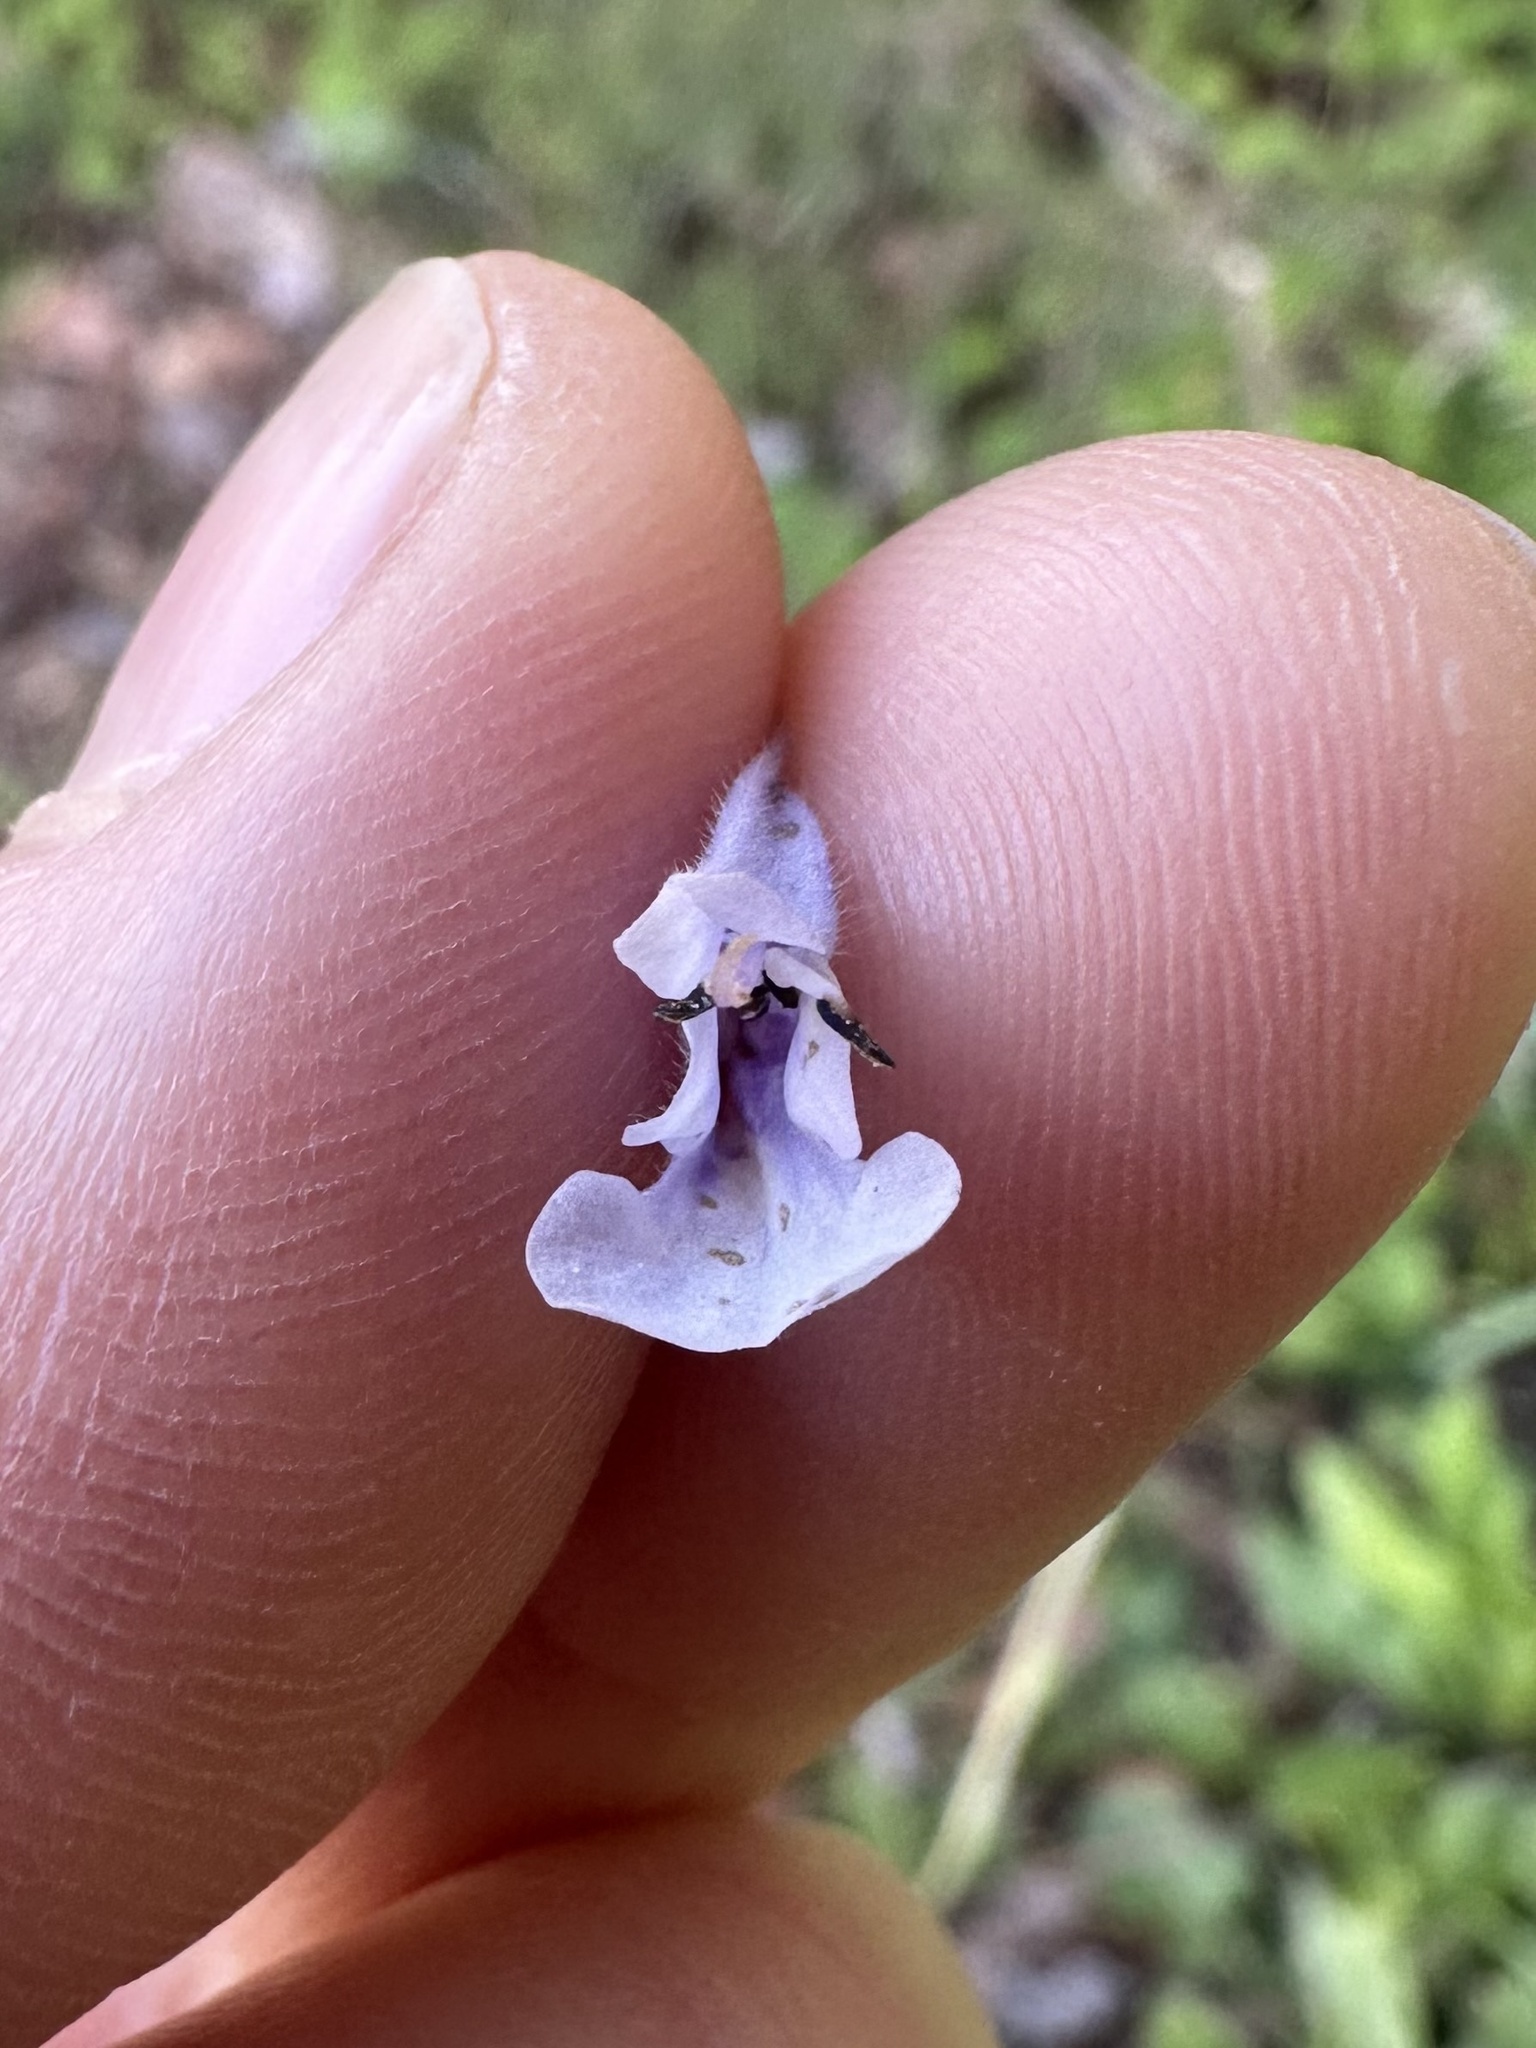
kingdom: Plantae
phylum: Tracheophyta
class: Magnoliopsida
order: Lamiales
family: Lamiaceae
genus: Salvia
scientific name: Salvia lyrata
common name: Cancerweed
